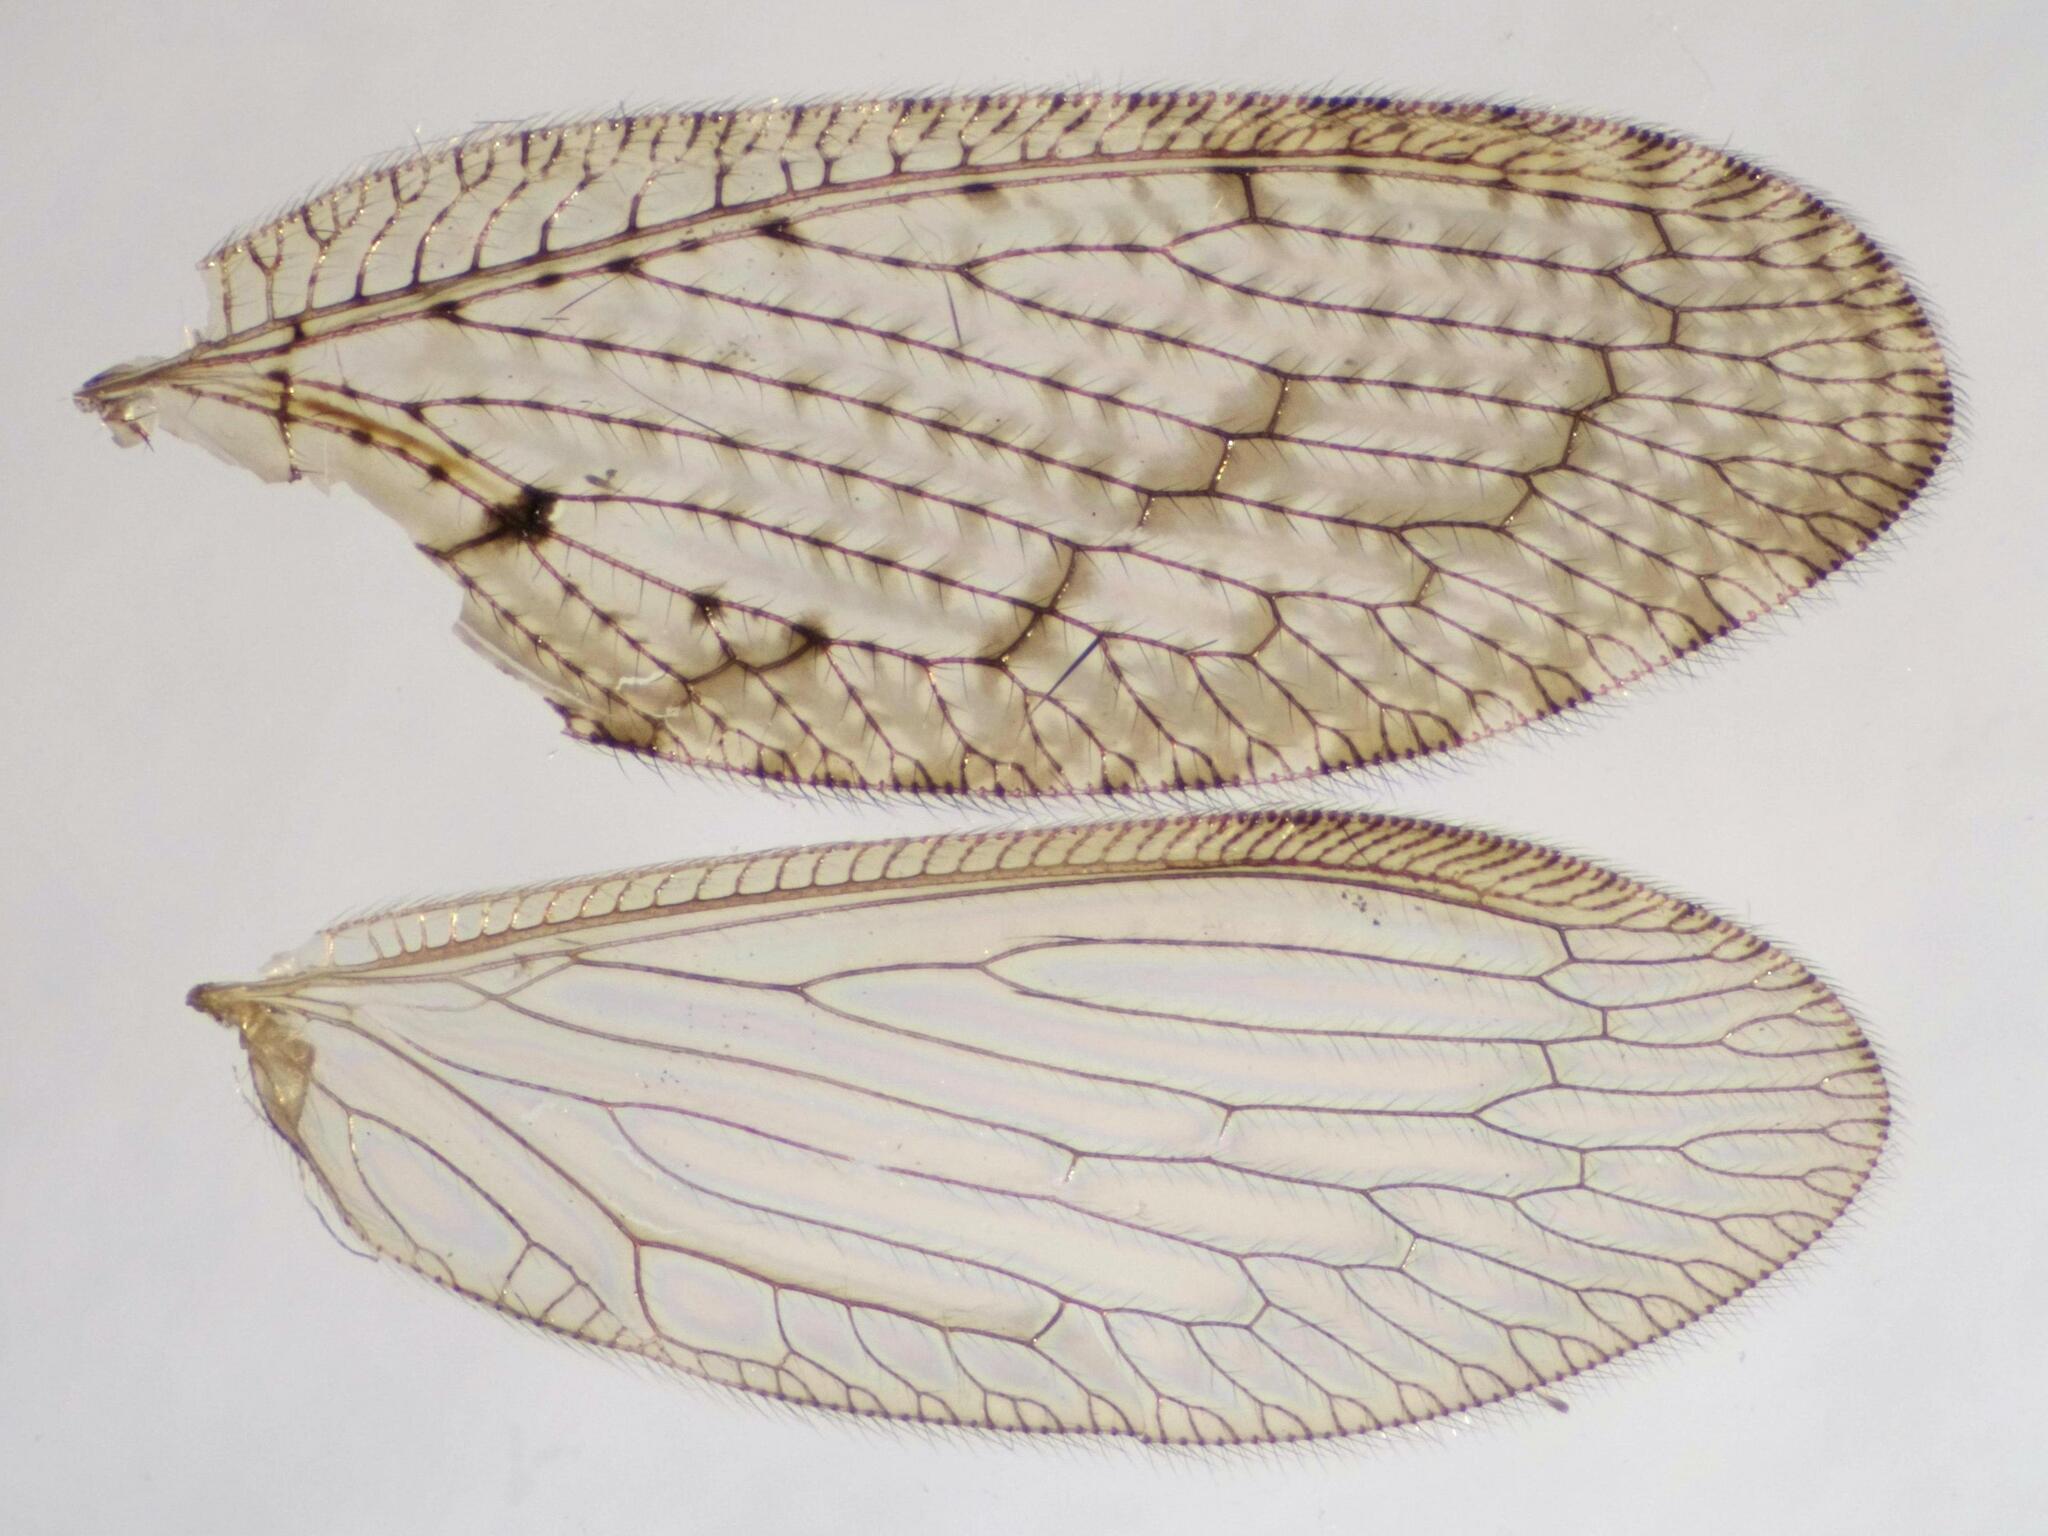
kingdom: Animalia
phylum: Arthropoda
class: Insecta
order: Neuroptera
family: Hemerobiidae
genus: Hemerobius
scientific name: Hemerobius stigma
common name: Brown pine lacewing
